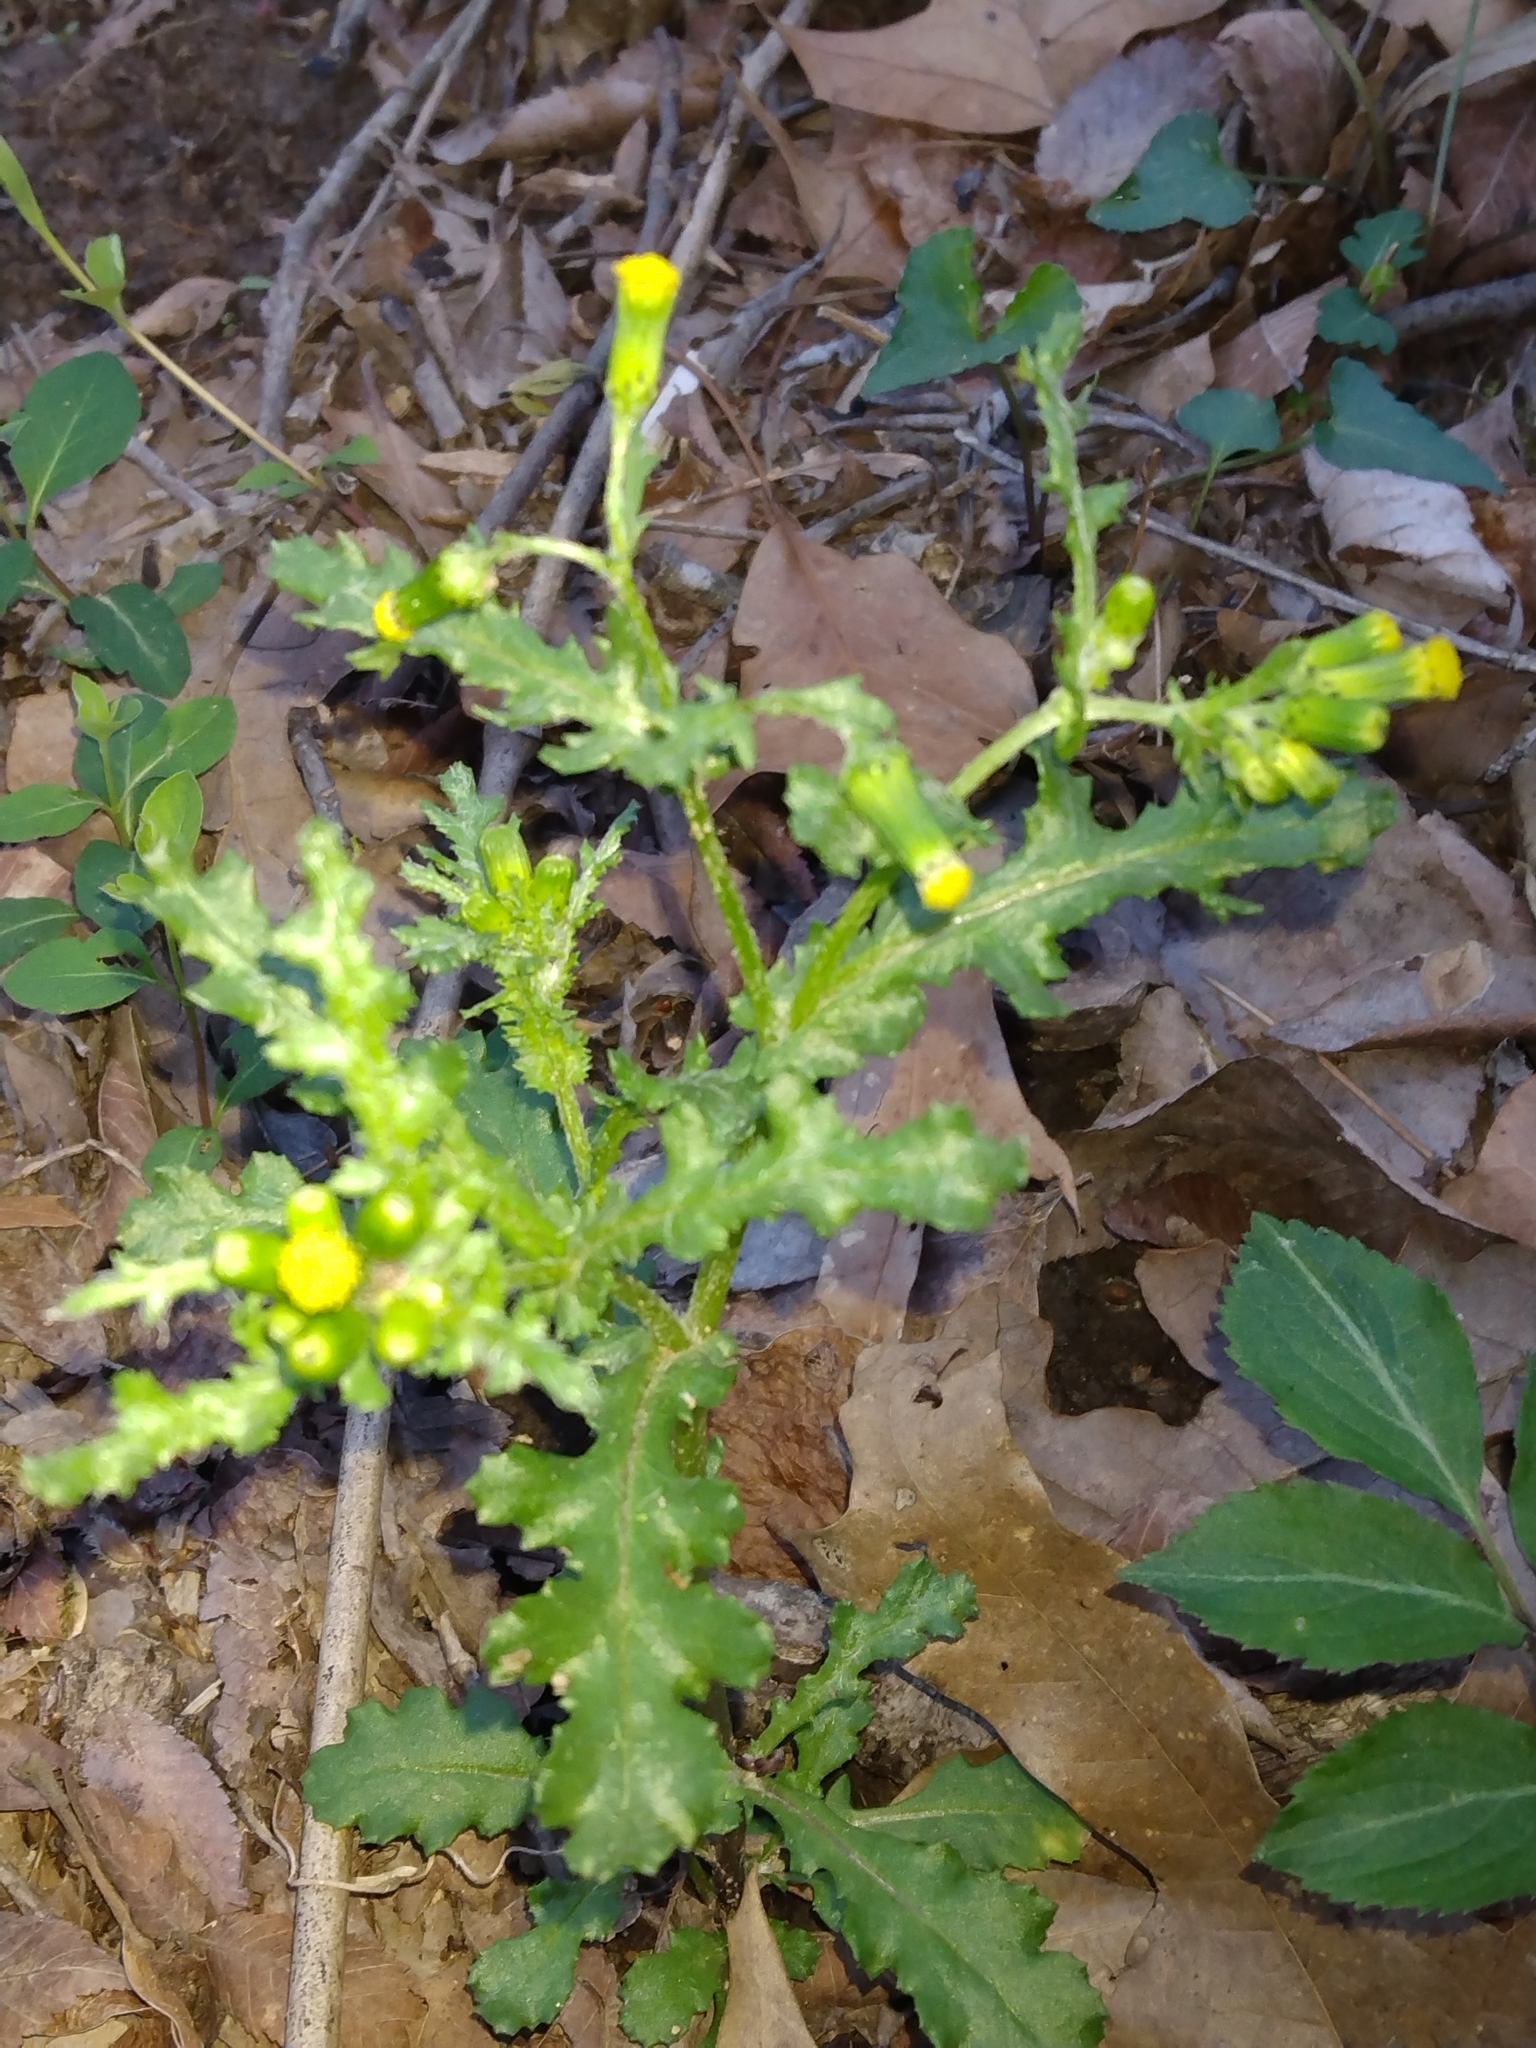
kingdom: Plantae
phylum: Tracheophyta
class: Magnoliopsida
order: Asterales
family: Asteraceae
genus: Senecio
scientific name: Senecio vulgaris
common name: Old-man-in-the-spring
